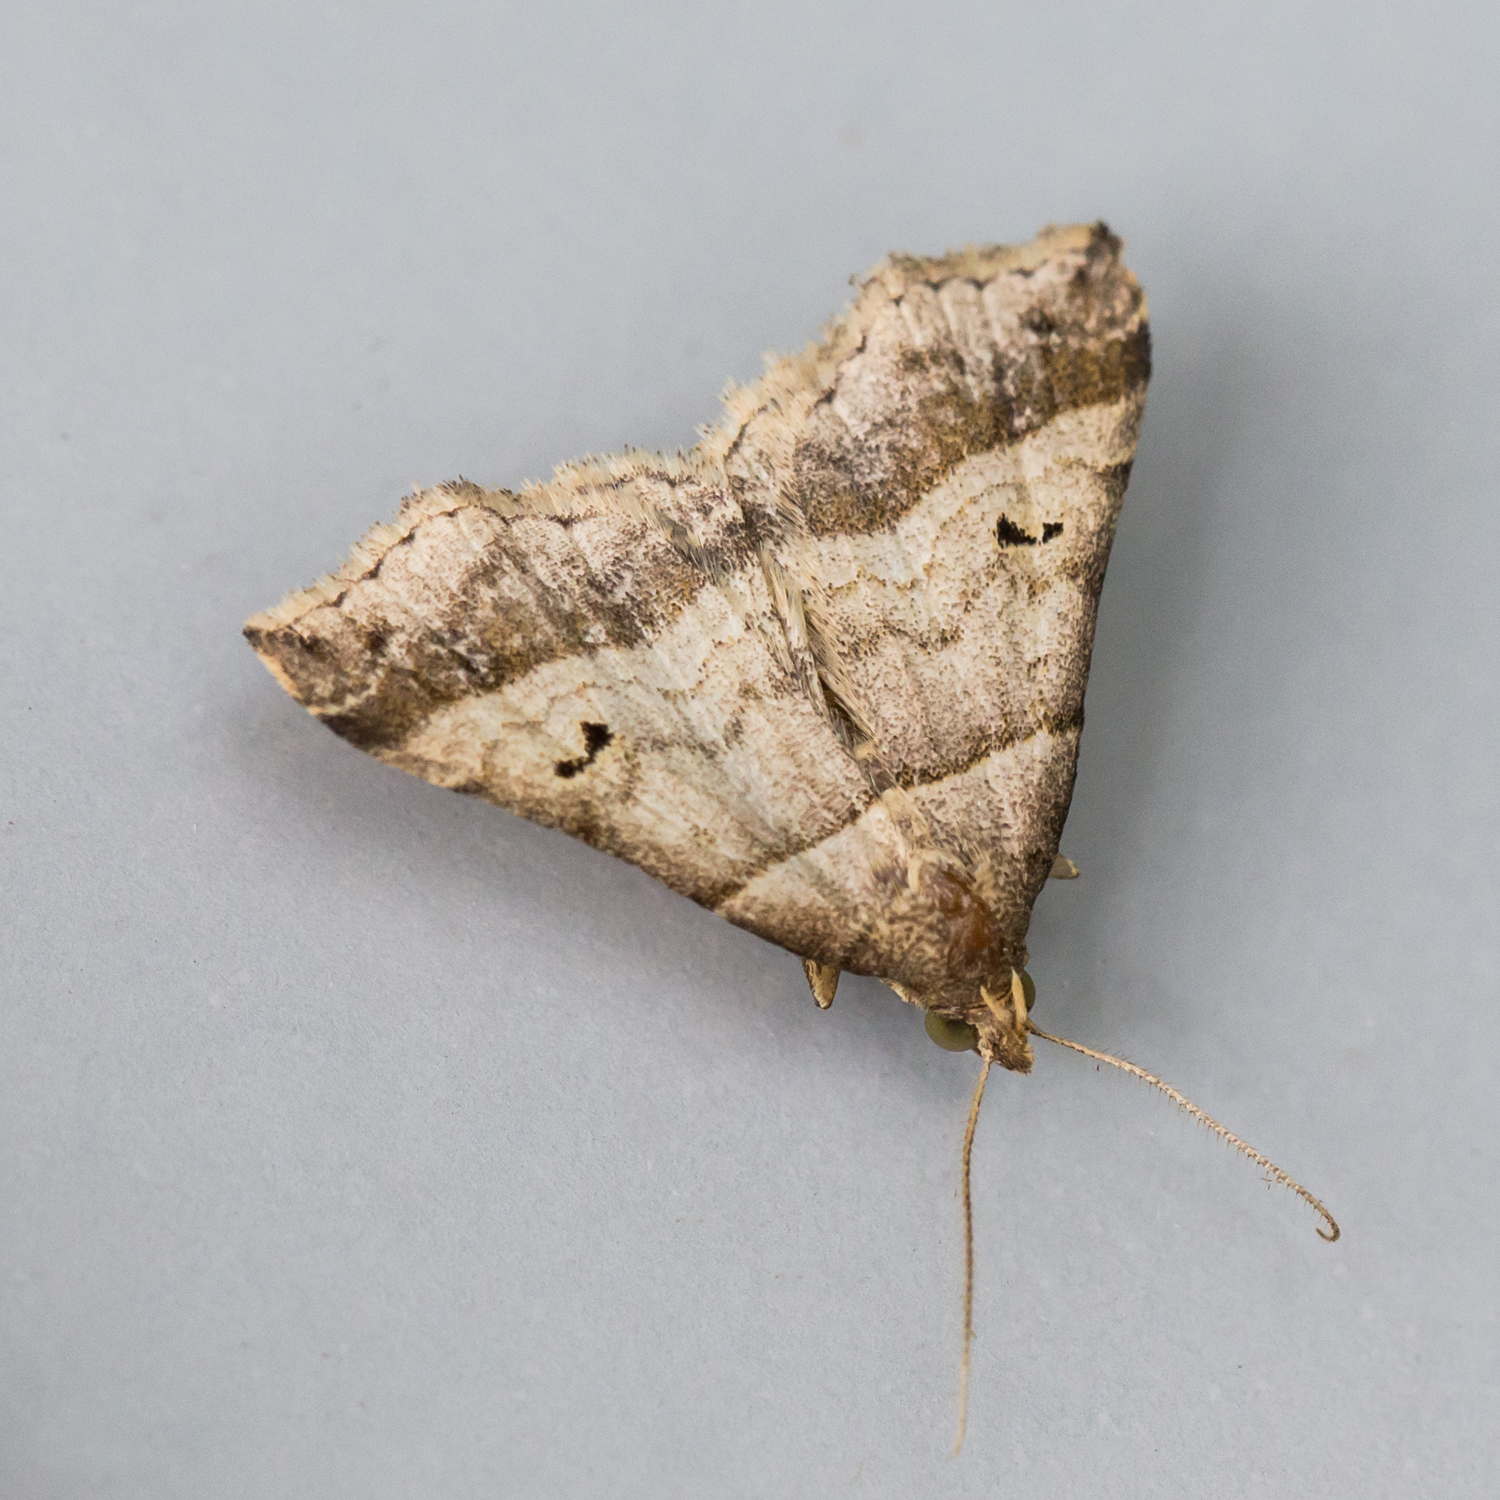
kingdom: Animalia
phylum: Arthropoda
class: Insecta
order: Lepidoptera
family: Erebidae
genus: Phaeolita
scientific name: Phaeolita pyramusalis
